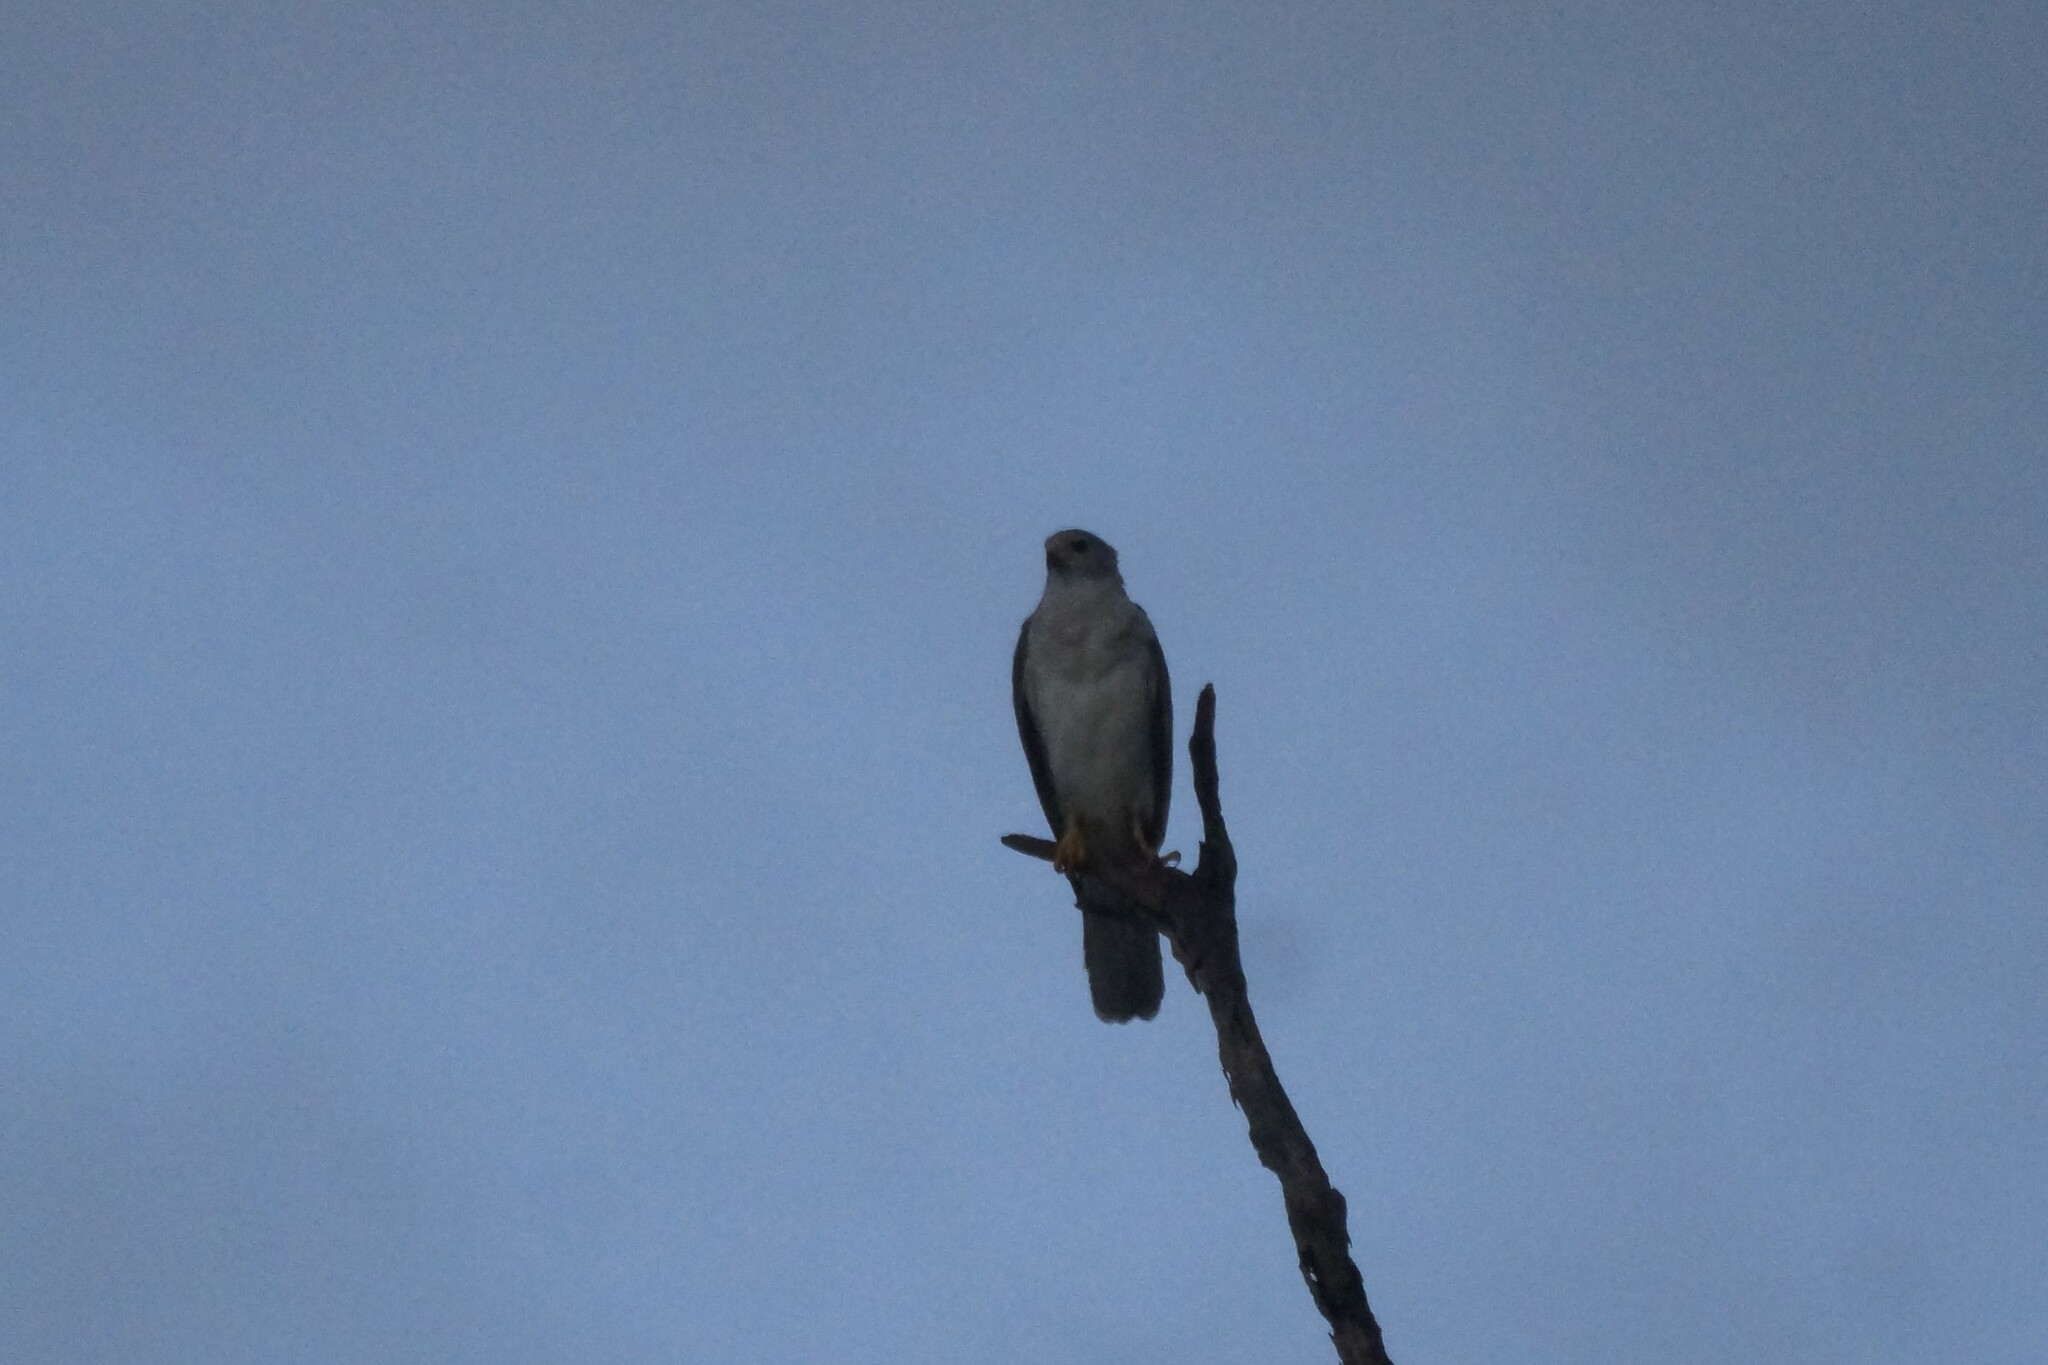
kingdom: Animalia
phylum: Chordata
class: Aves
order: Accipitriformes
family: Accipitridae
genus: Accipiter
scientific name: Accipiter novaehollandiae
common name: Grey goshawk
